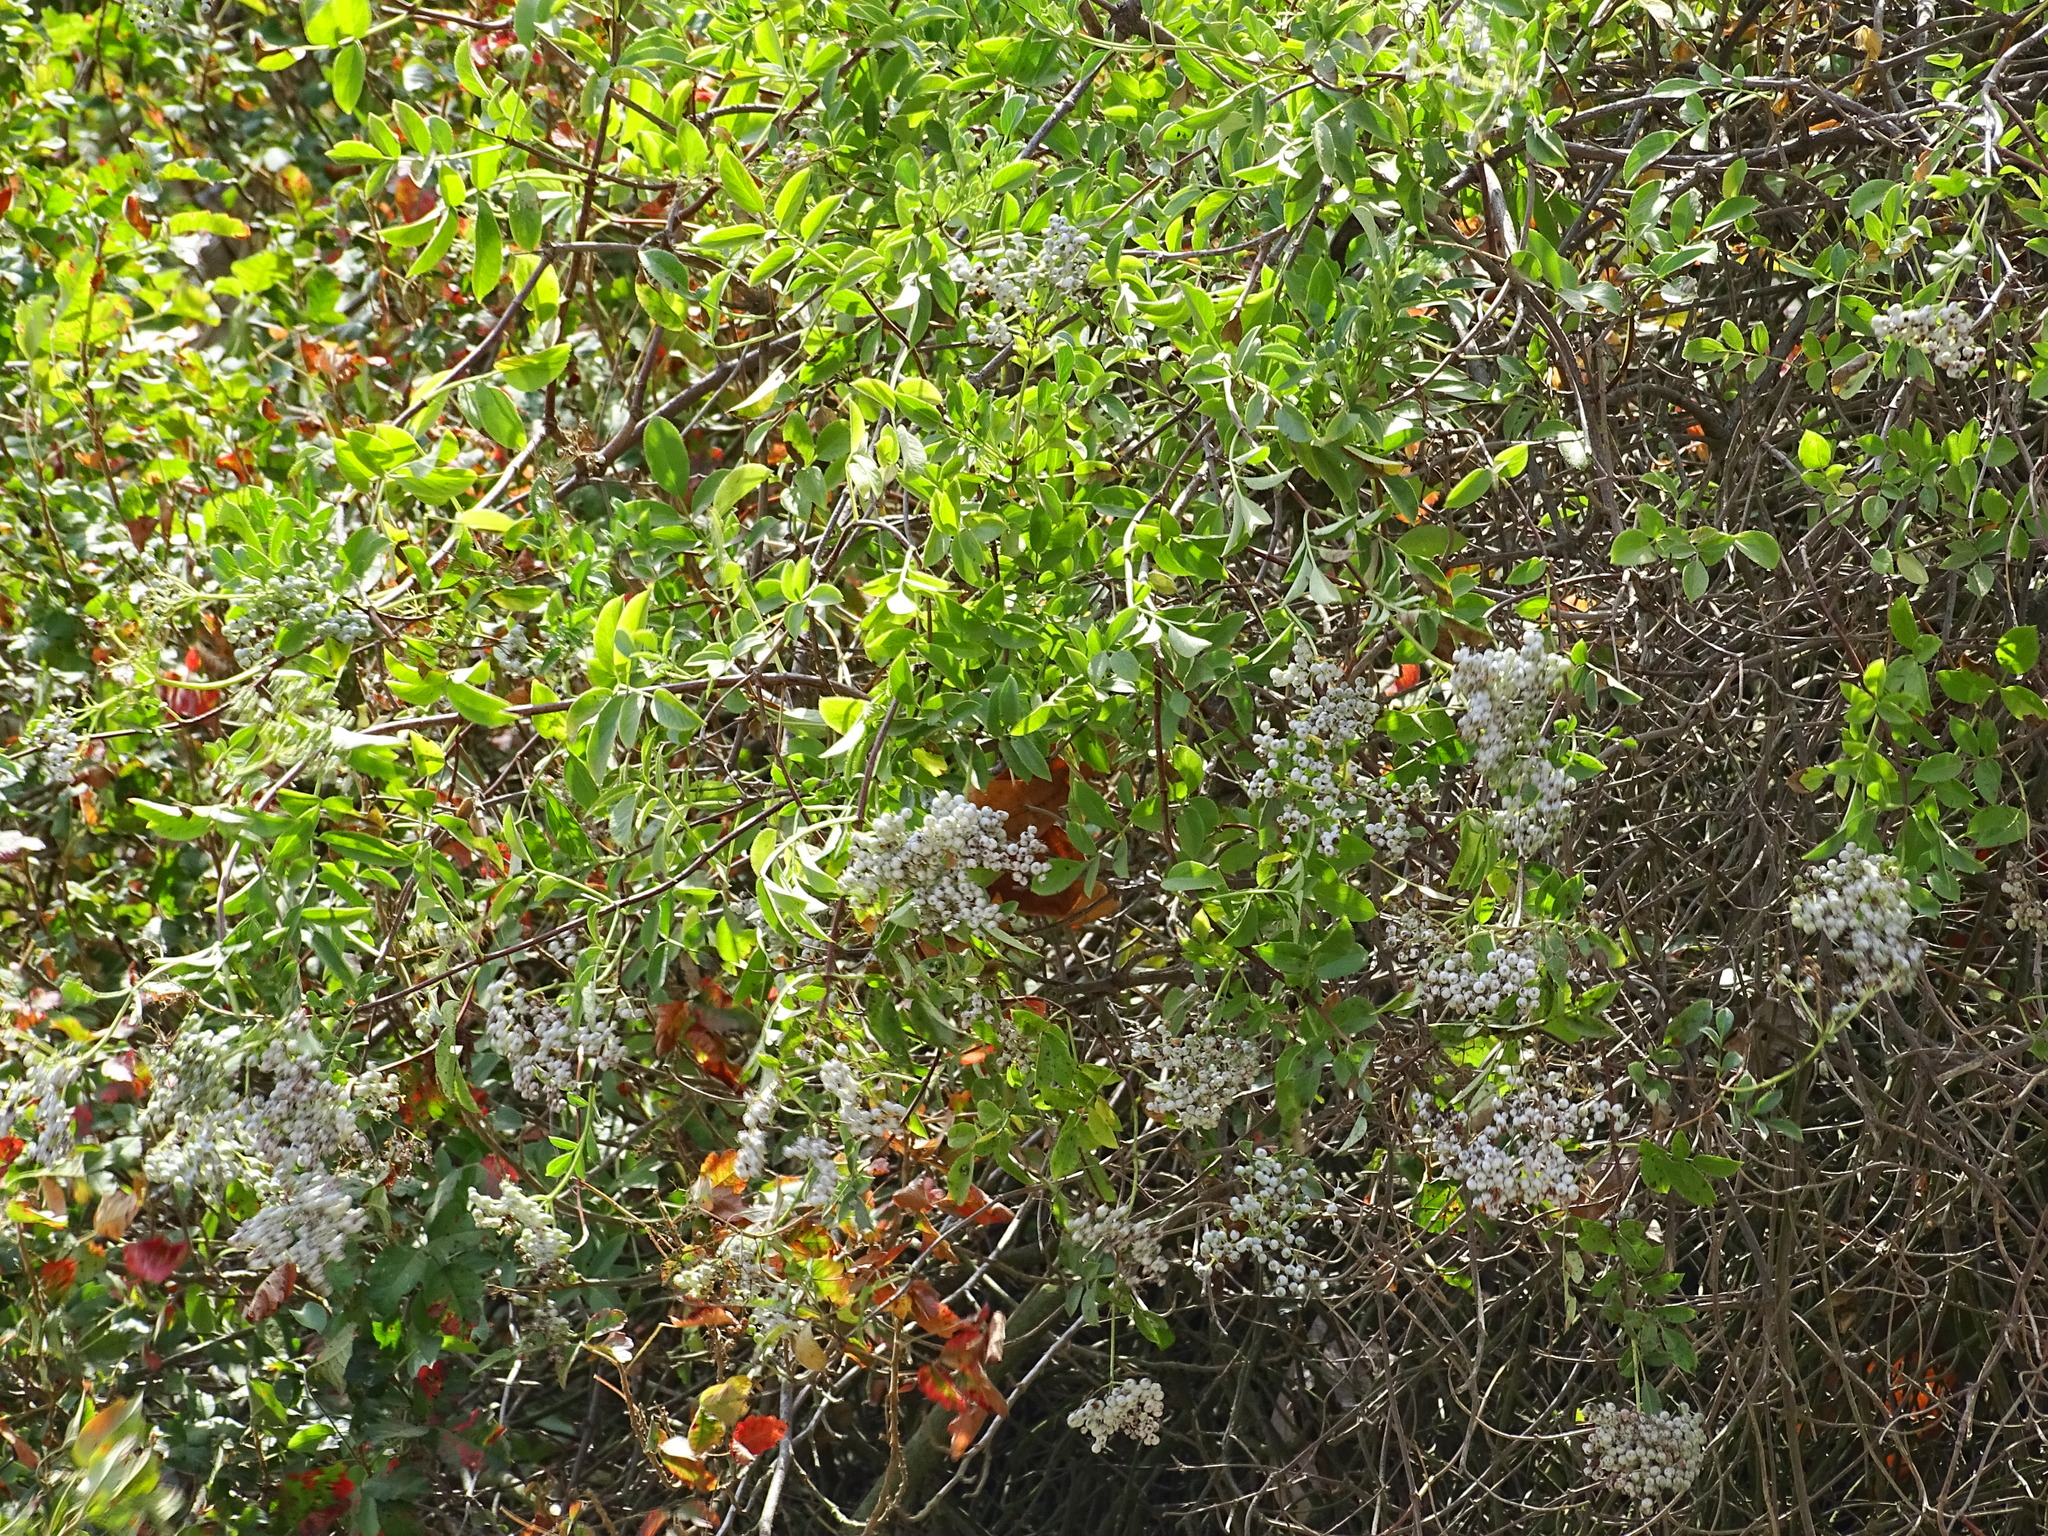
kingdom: Plantae
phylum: Tracheophyta
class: Magnoliopsida
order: Dipsacales
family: Viburnaceae
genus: Sambucus
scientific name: Sambucus cerulea
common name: Blue elder
